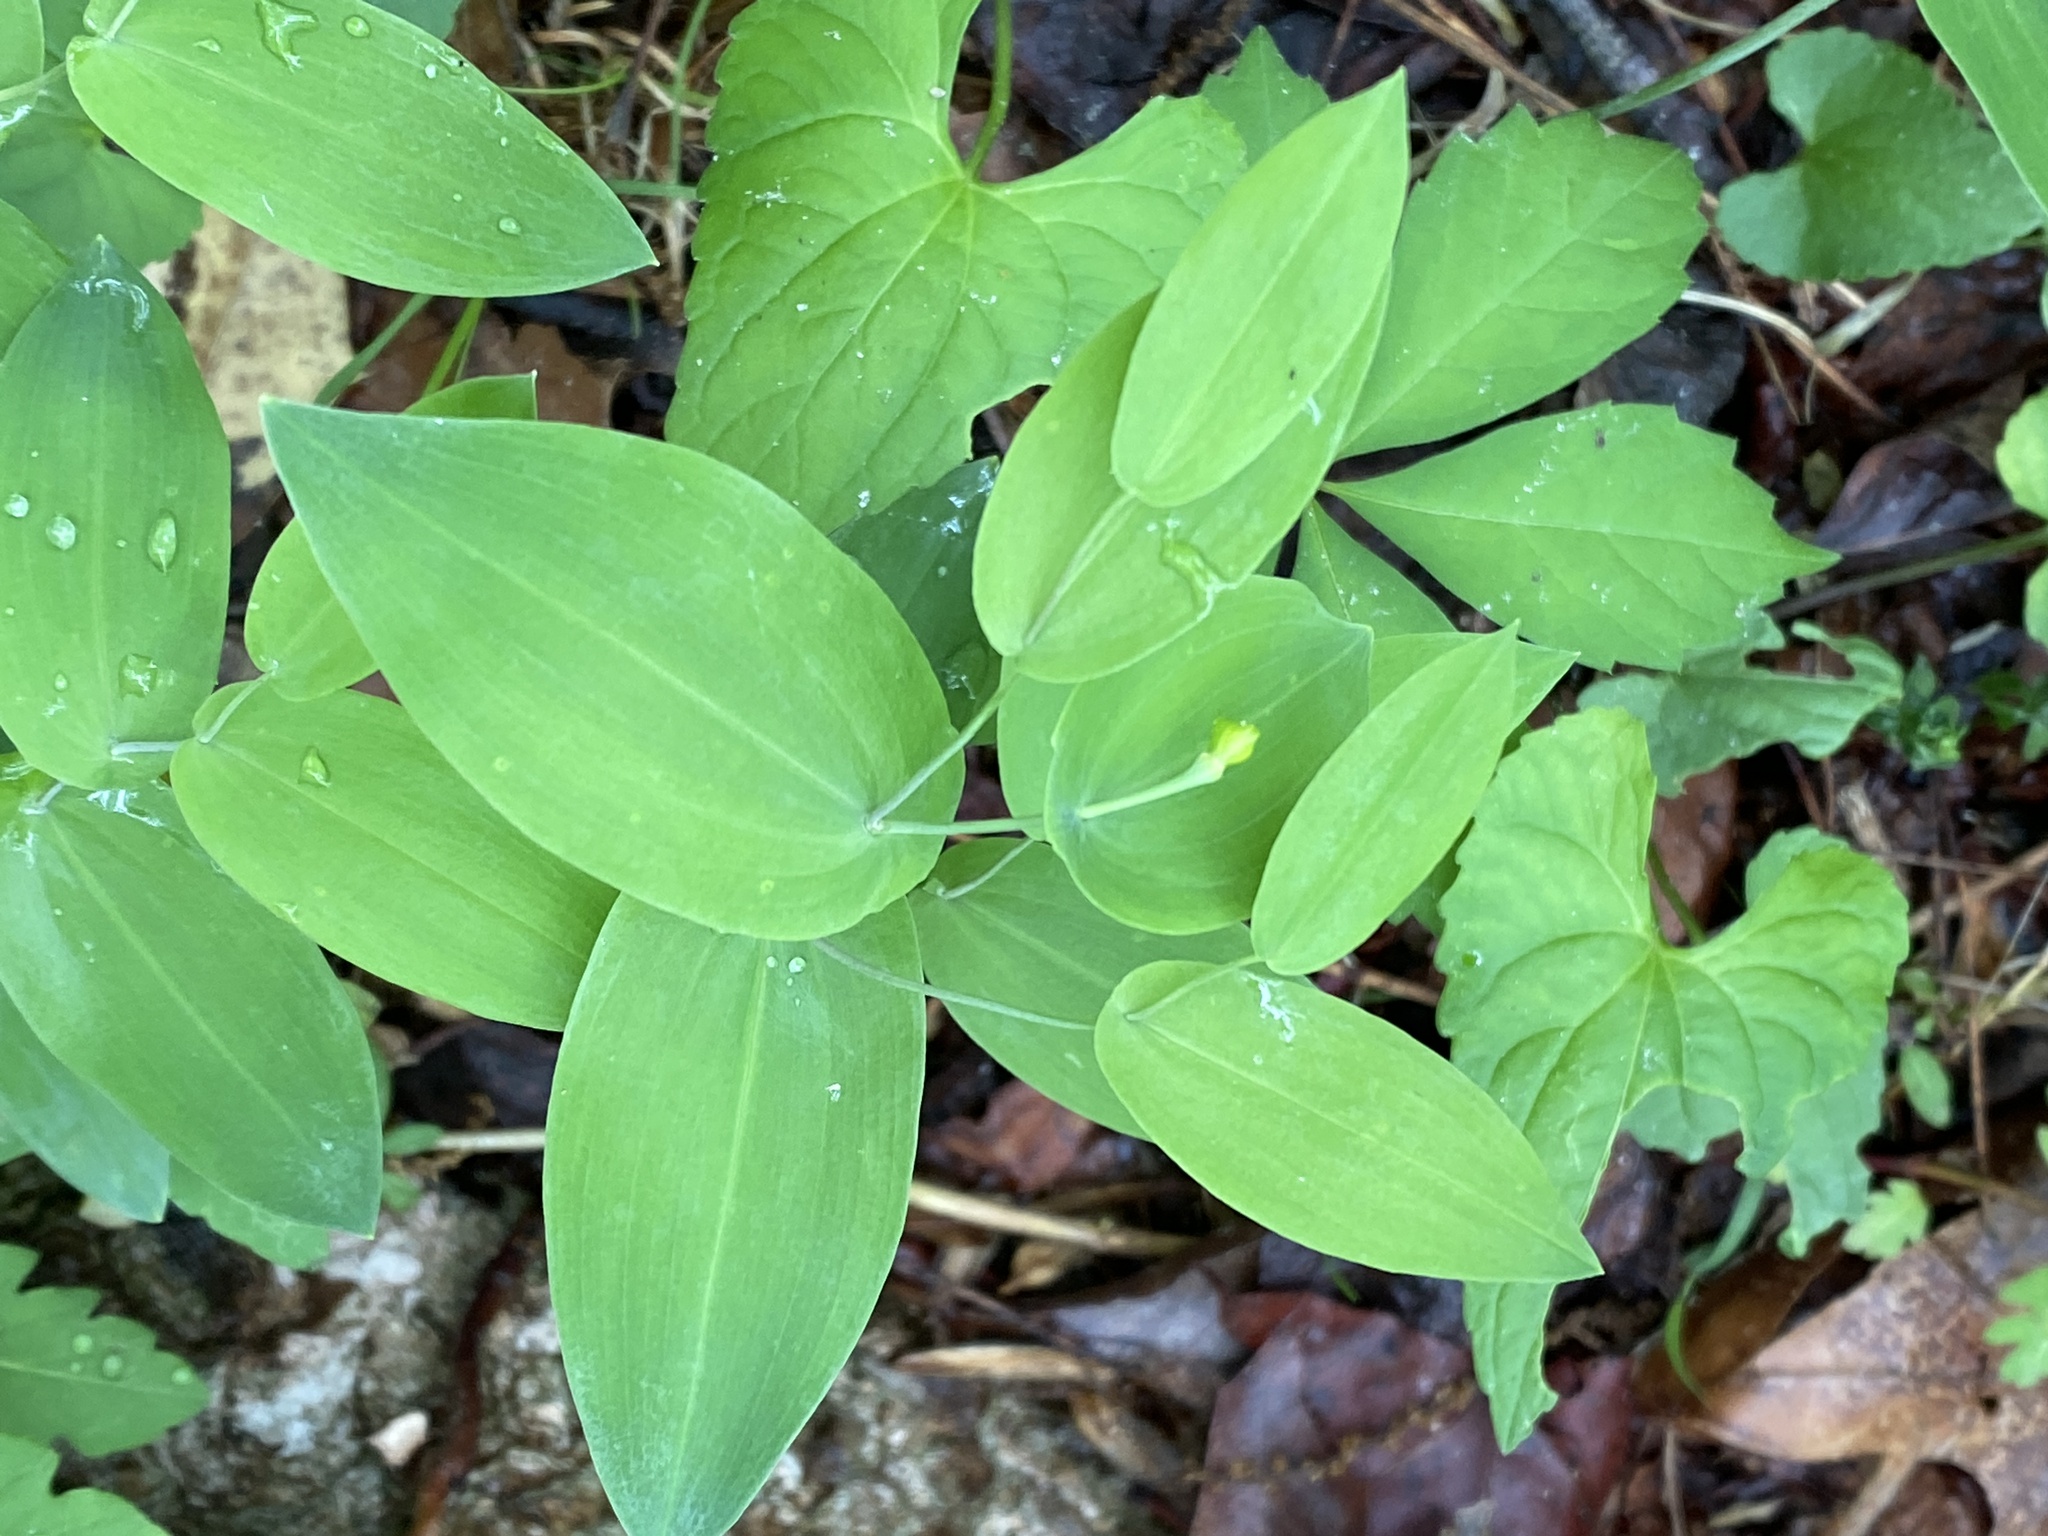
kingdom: Plantae
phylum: Tracheophyta
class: Liliopsida
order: Liliales
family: Colchicaceae
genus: Uvularia
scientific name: Uvularia perfoliata
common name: Perfoliate bellwort
